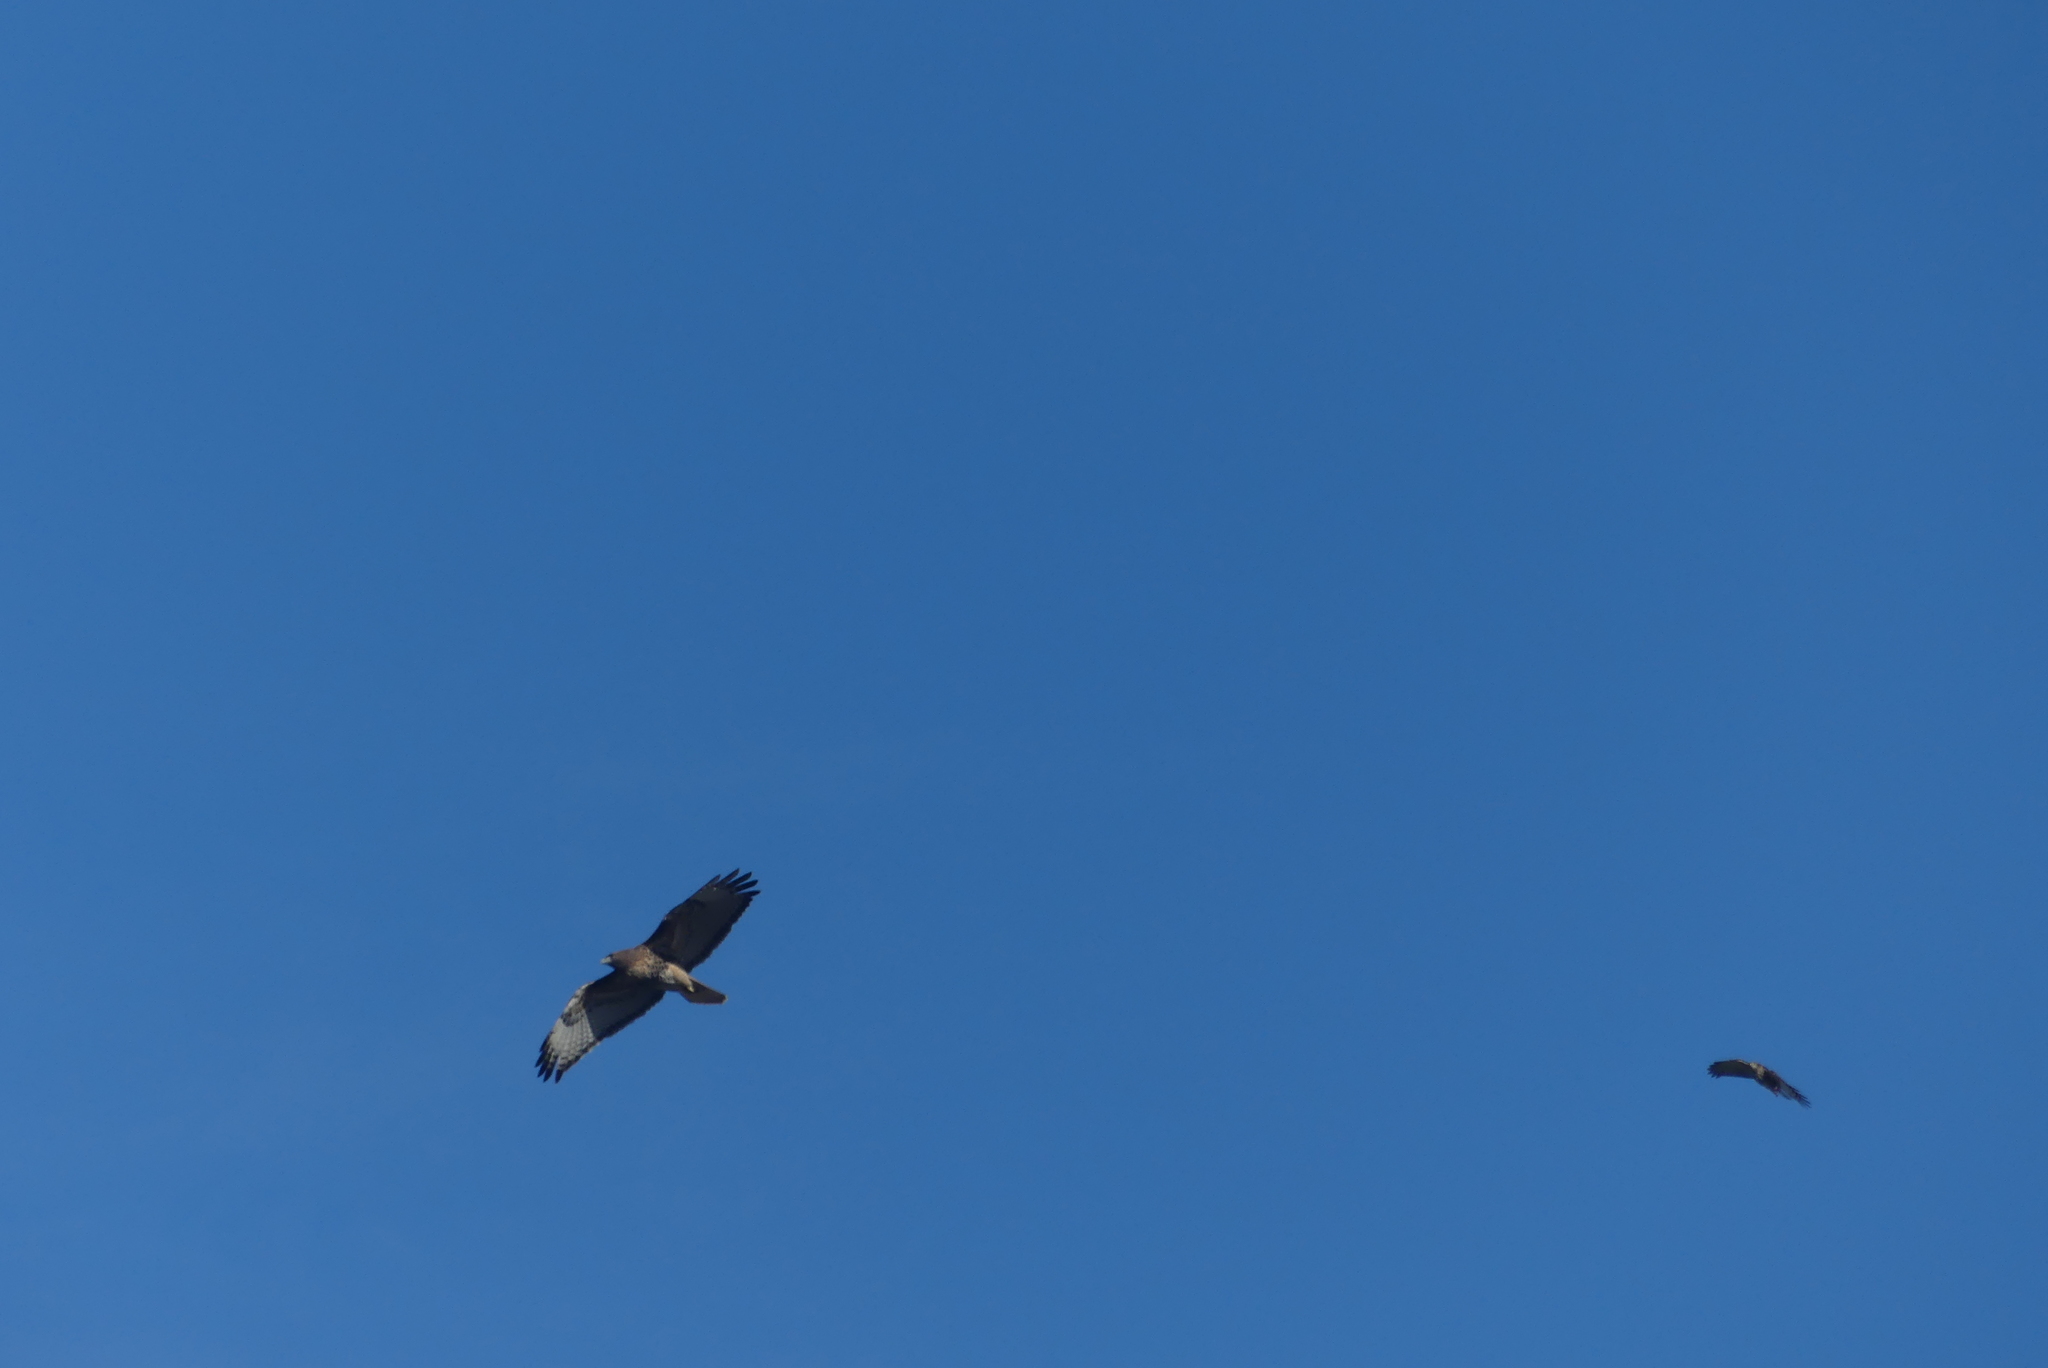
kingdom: Animalia
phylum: Chordata
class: Aves
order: Accipitriformes
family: Accipitridae
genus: Buteo
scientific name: Buteo jamaicensis
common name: Red-tailed hawk
